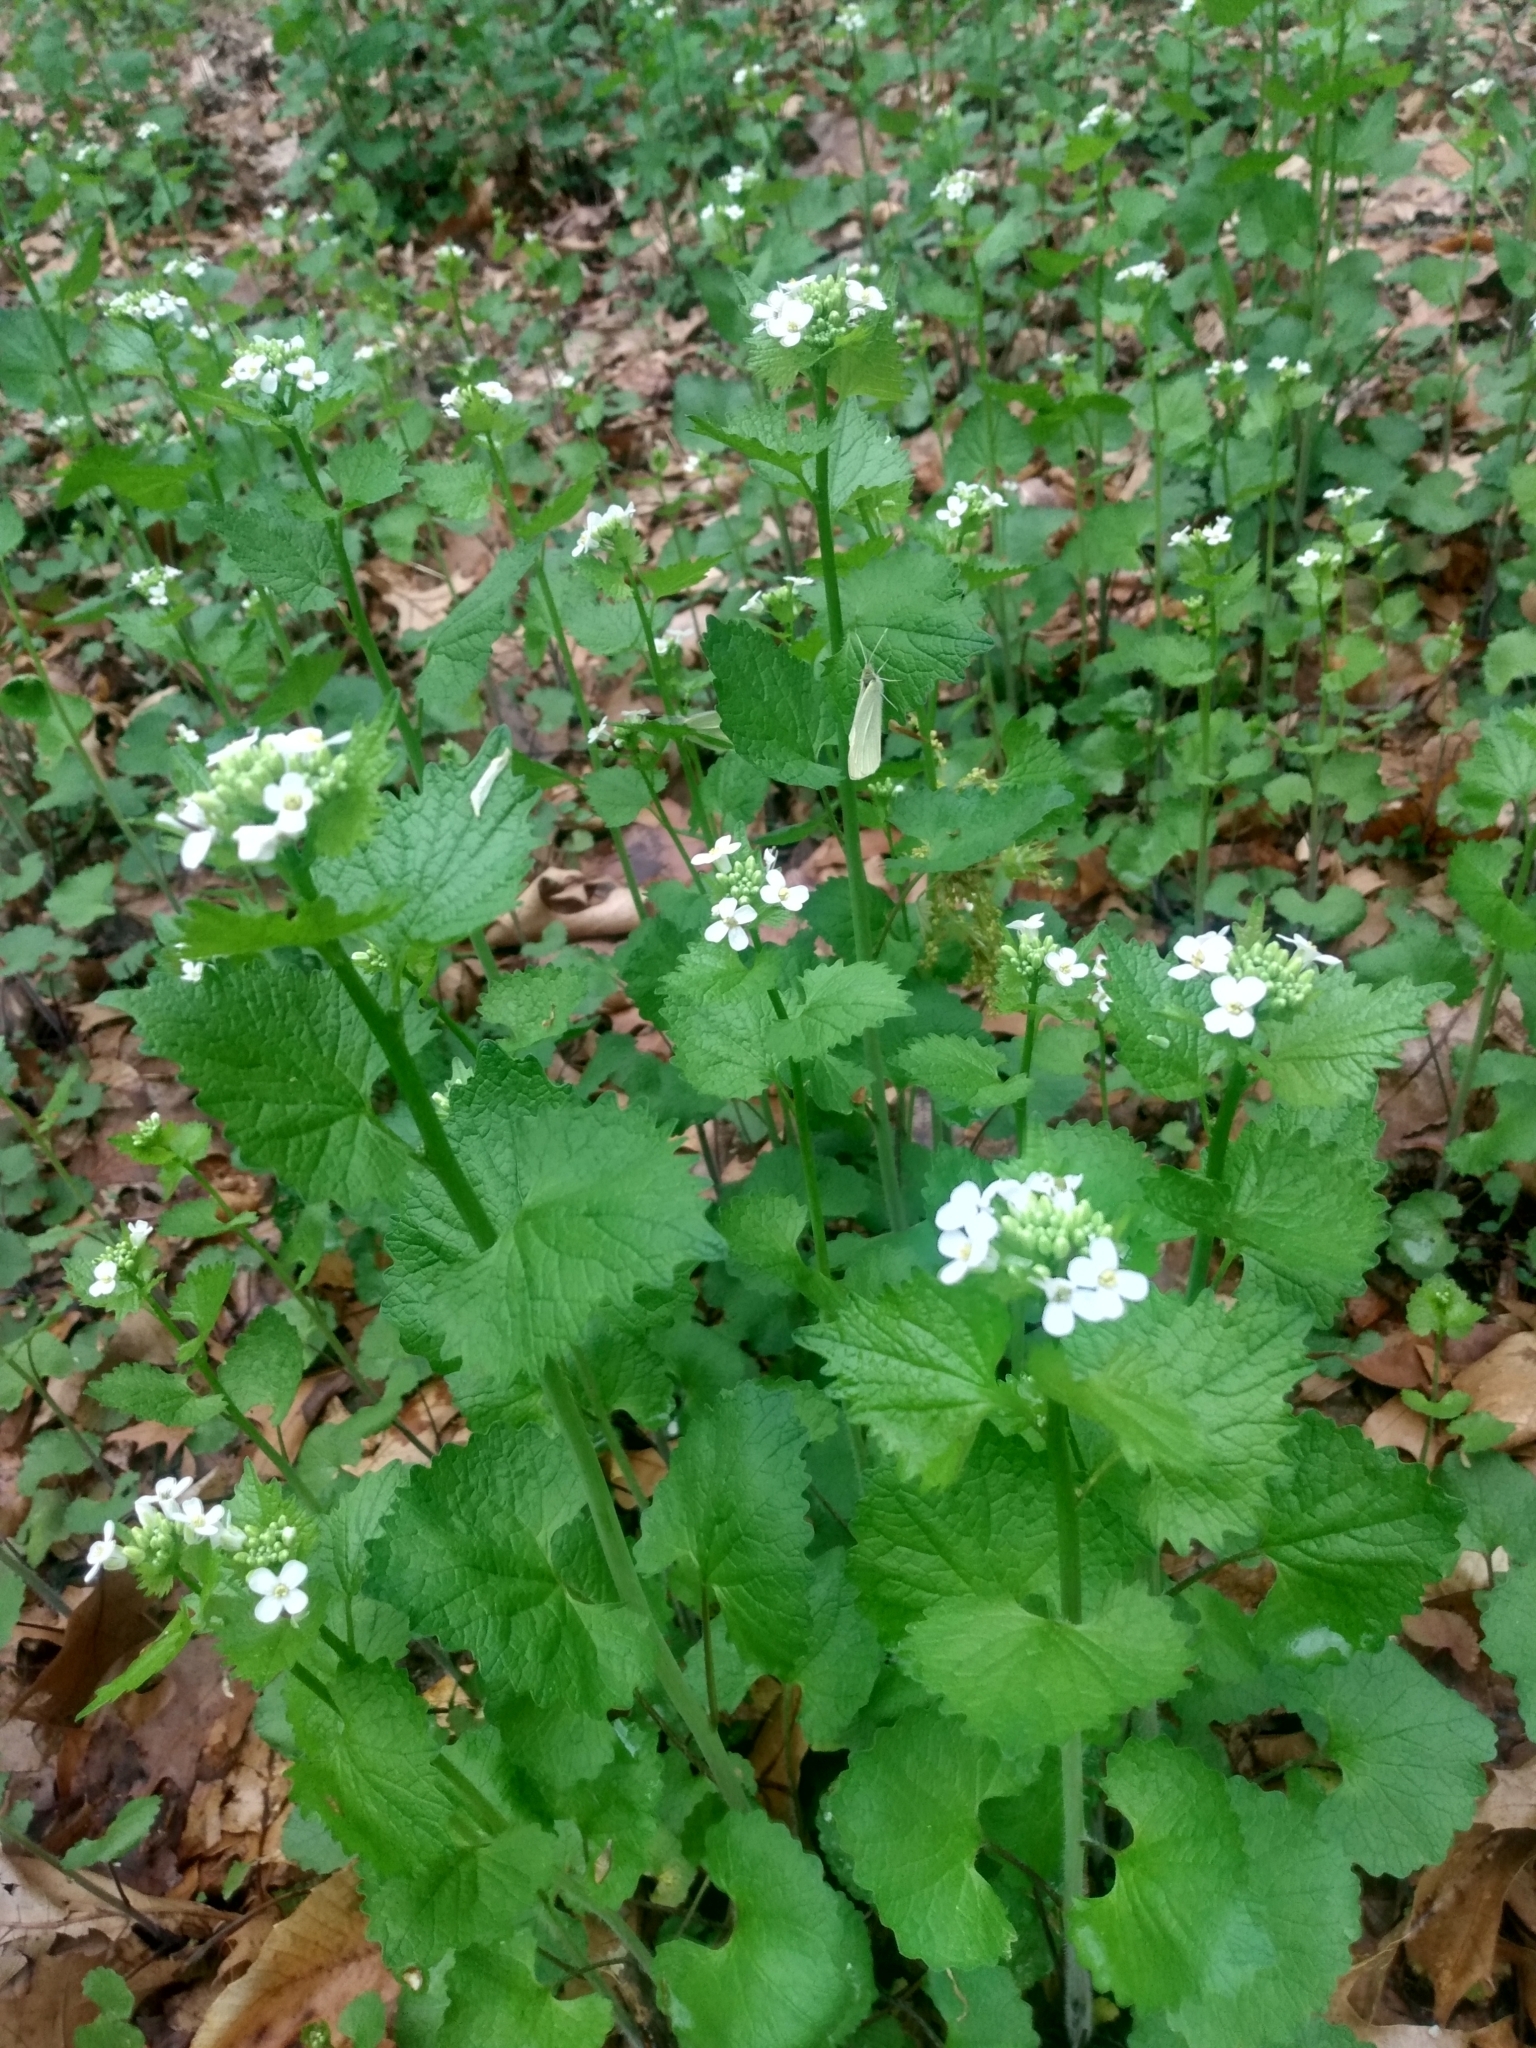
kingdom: Plantae
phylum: Tracheophyta
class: Magnoliopsida
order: Brassicales
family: Brassicaceae
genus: Alliaria
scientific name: Alliaria petiolata
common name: Garlic mustard
